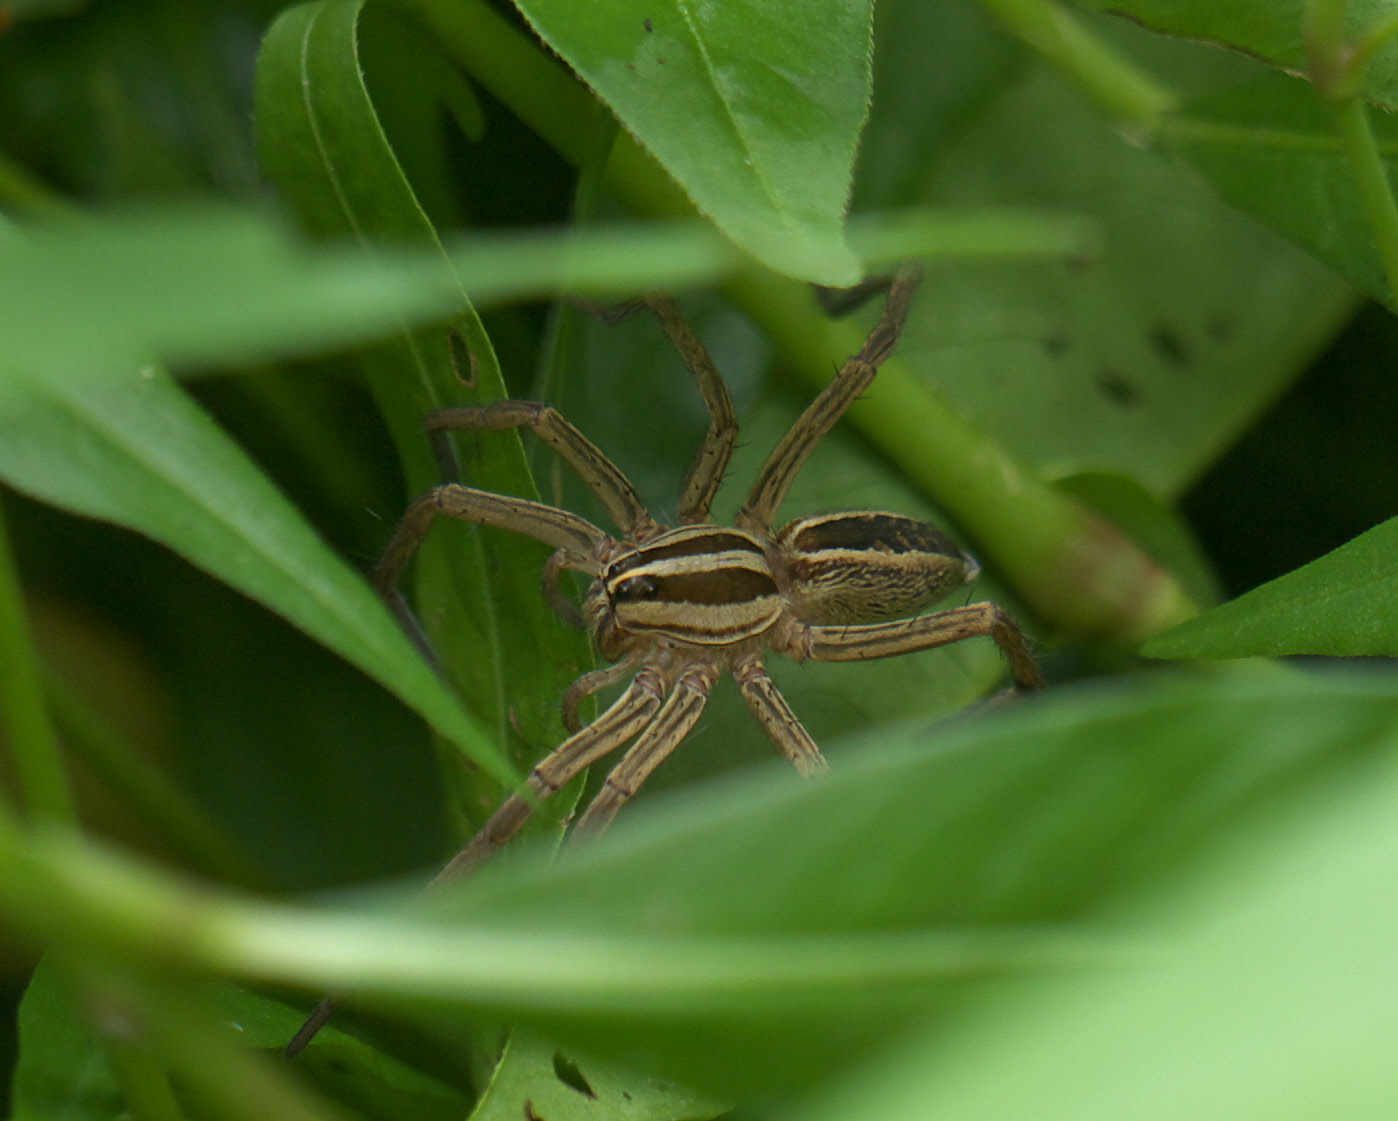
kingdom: Animalia
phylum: Arthropoda
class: Arachnida
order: Araneae
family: Lycosidae
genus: Rabidosa
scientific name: Rabidosa rabida
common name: Rabid wolf spider
